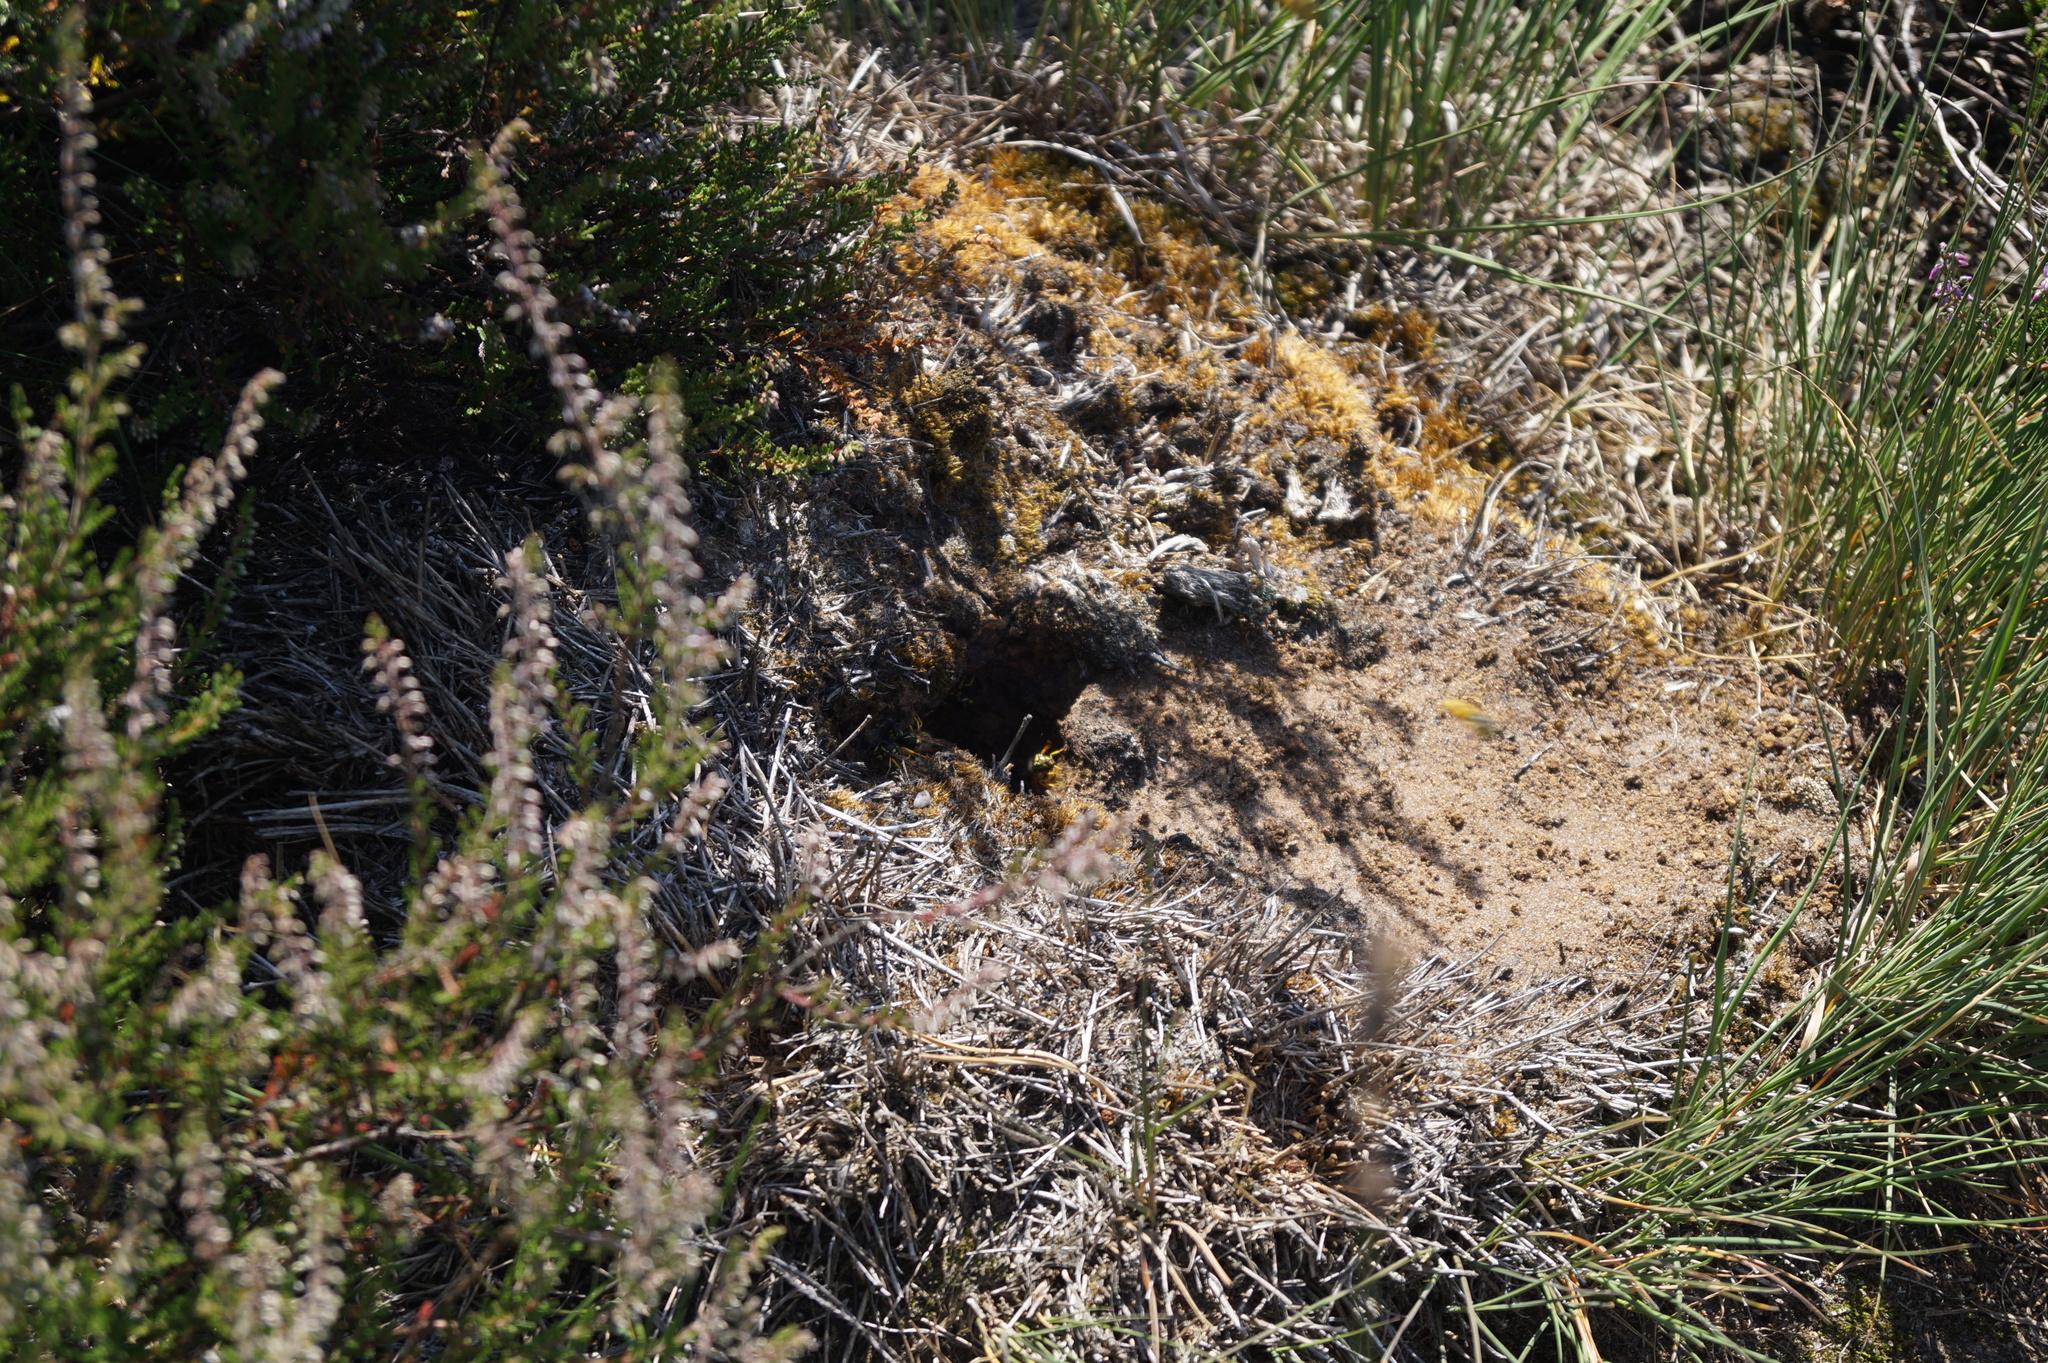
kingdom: Animalia
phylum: Arthropoda
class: Insecta
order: Hymenoptera
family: Eumenidae
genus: Polistes
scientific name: Polistes dominula
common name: Paper wasp
